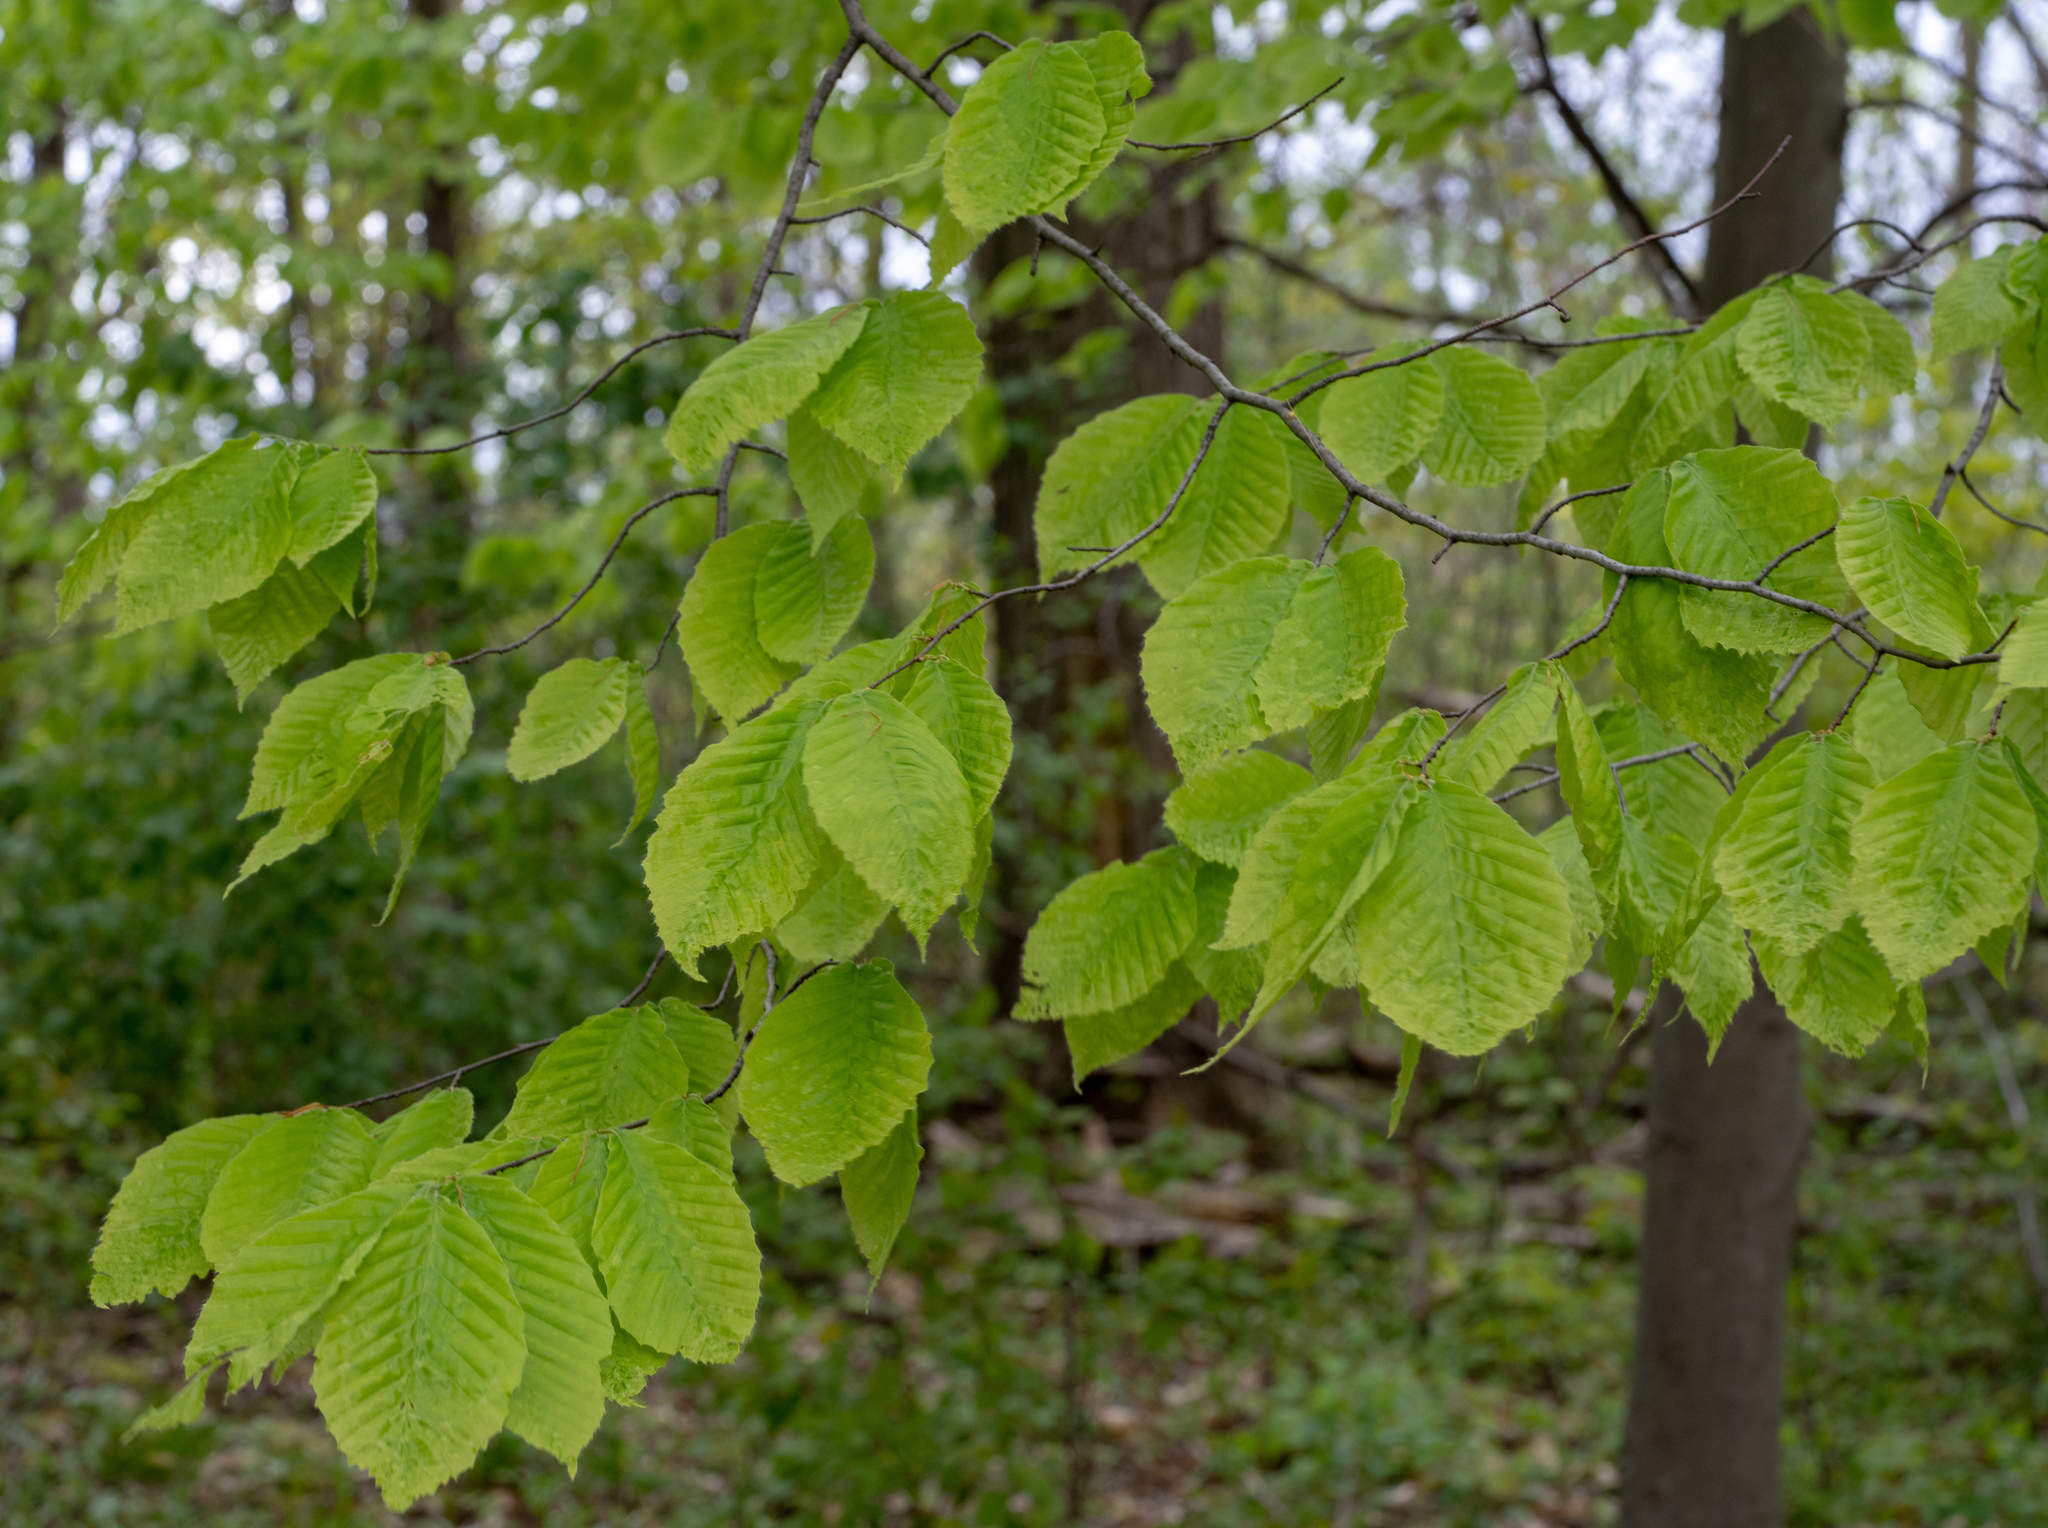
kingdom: Plantae
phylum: Tracheophyta
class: Magnoliopsida
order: Fagales
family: Fagaceae
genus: Fagus
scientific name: Fagus grandifolia
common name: American beech
